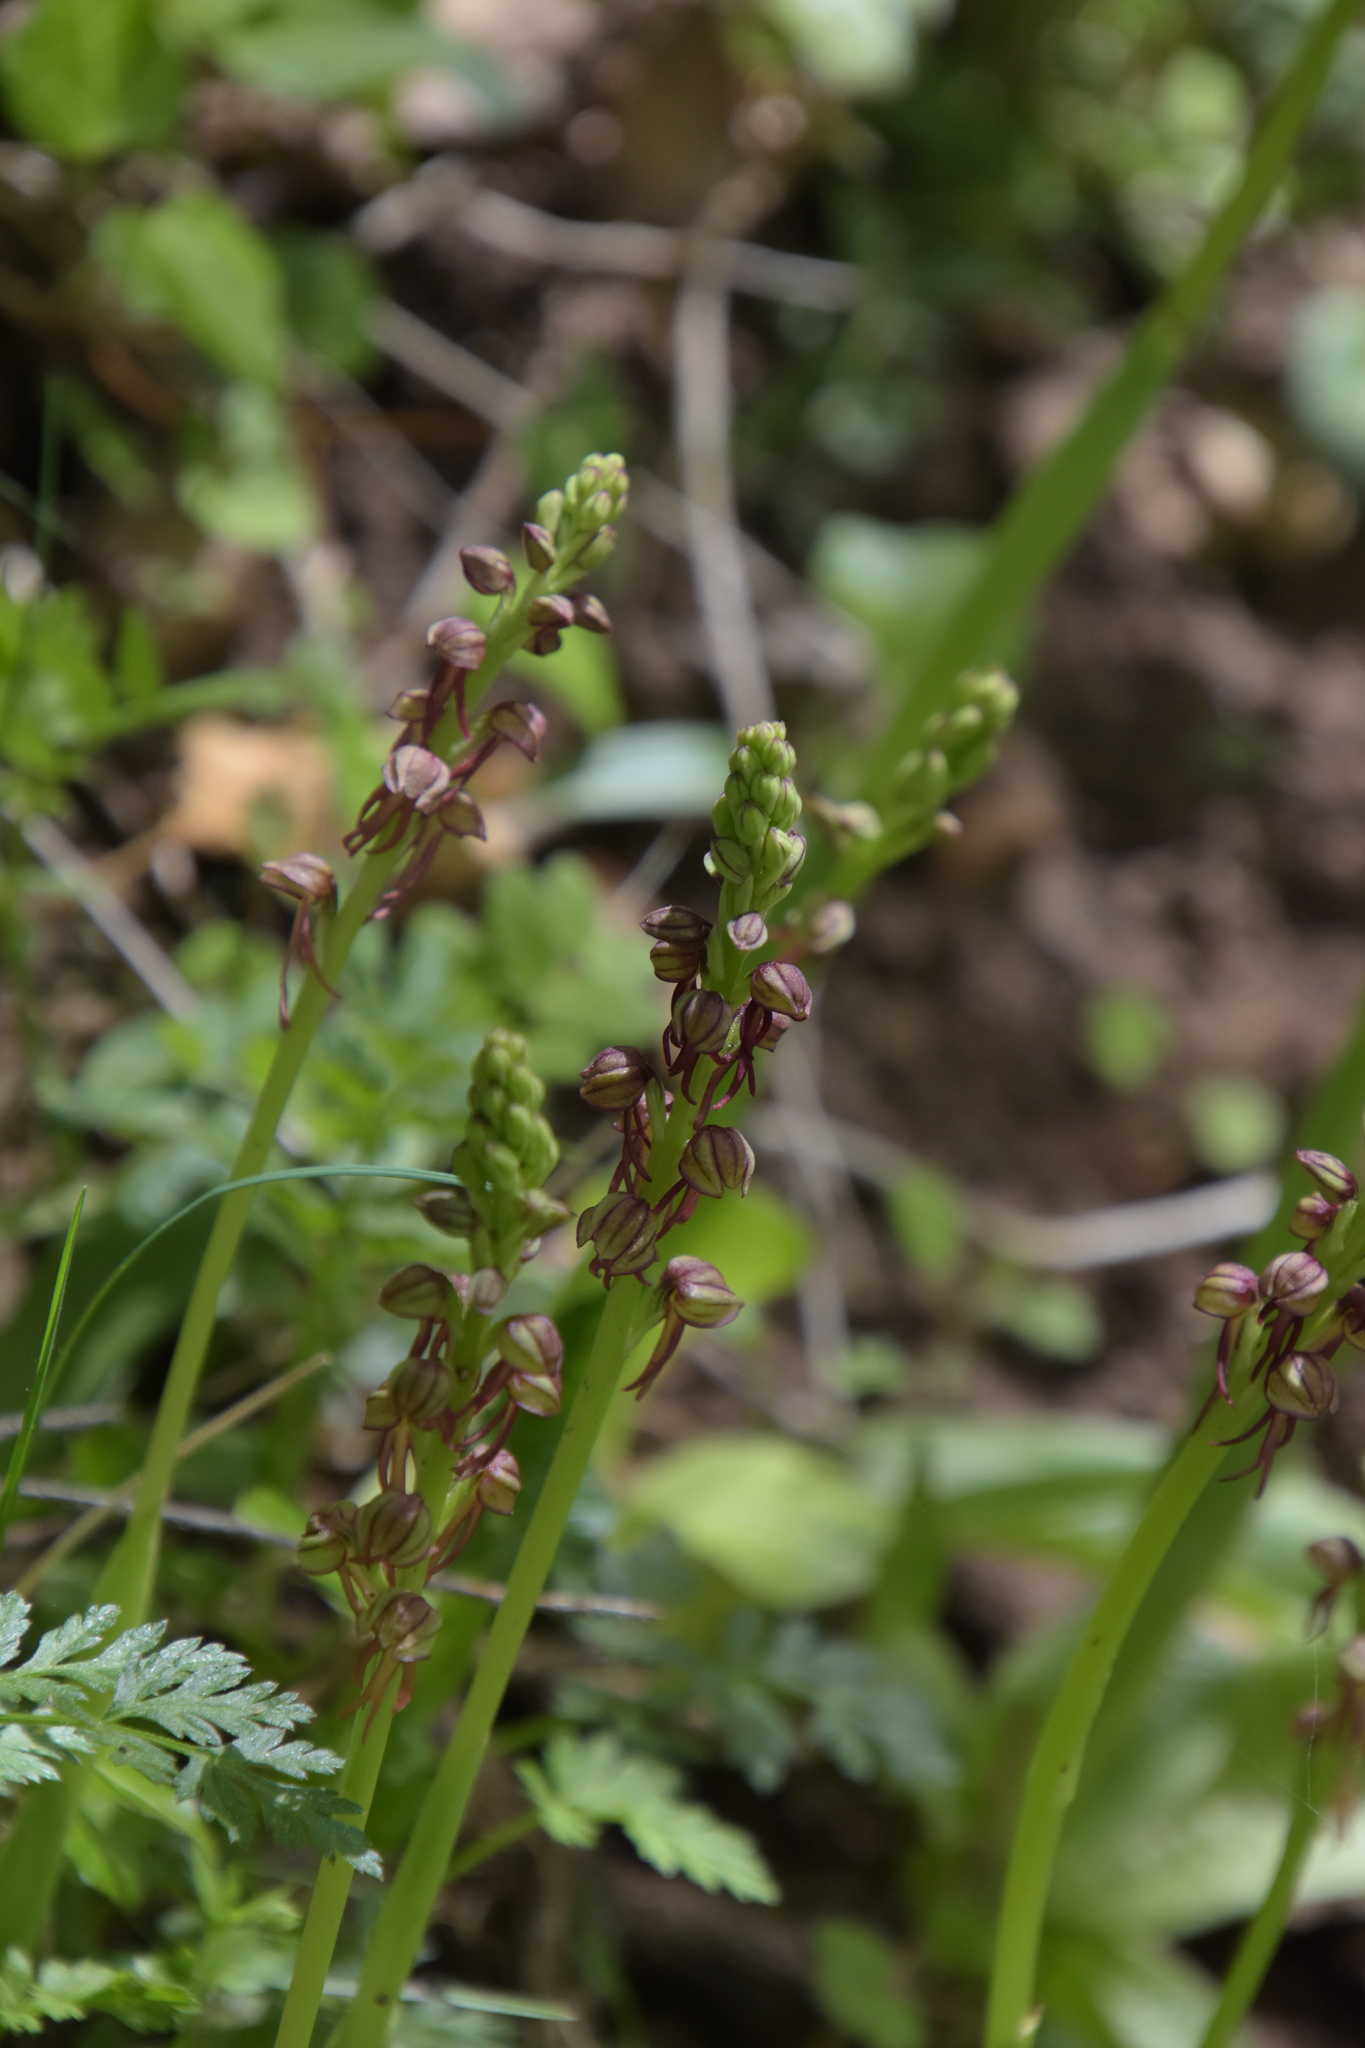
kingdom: Plantae
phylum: Tracheophyta
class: Liliopsida
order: Asparagales
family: Orchidaceae
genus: Orchis
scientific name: Orchis anthropophora
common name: Man orchid
